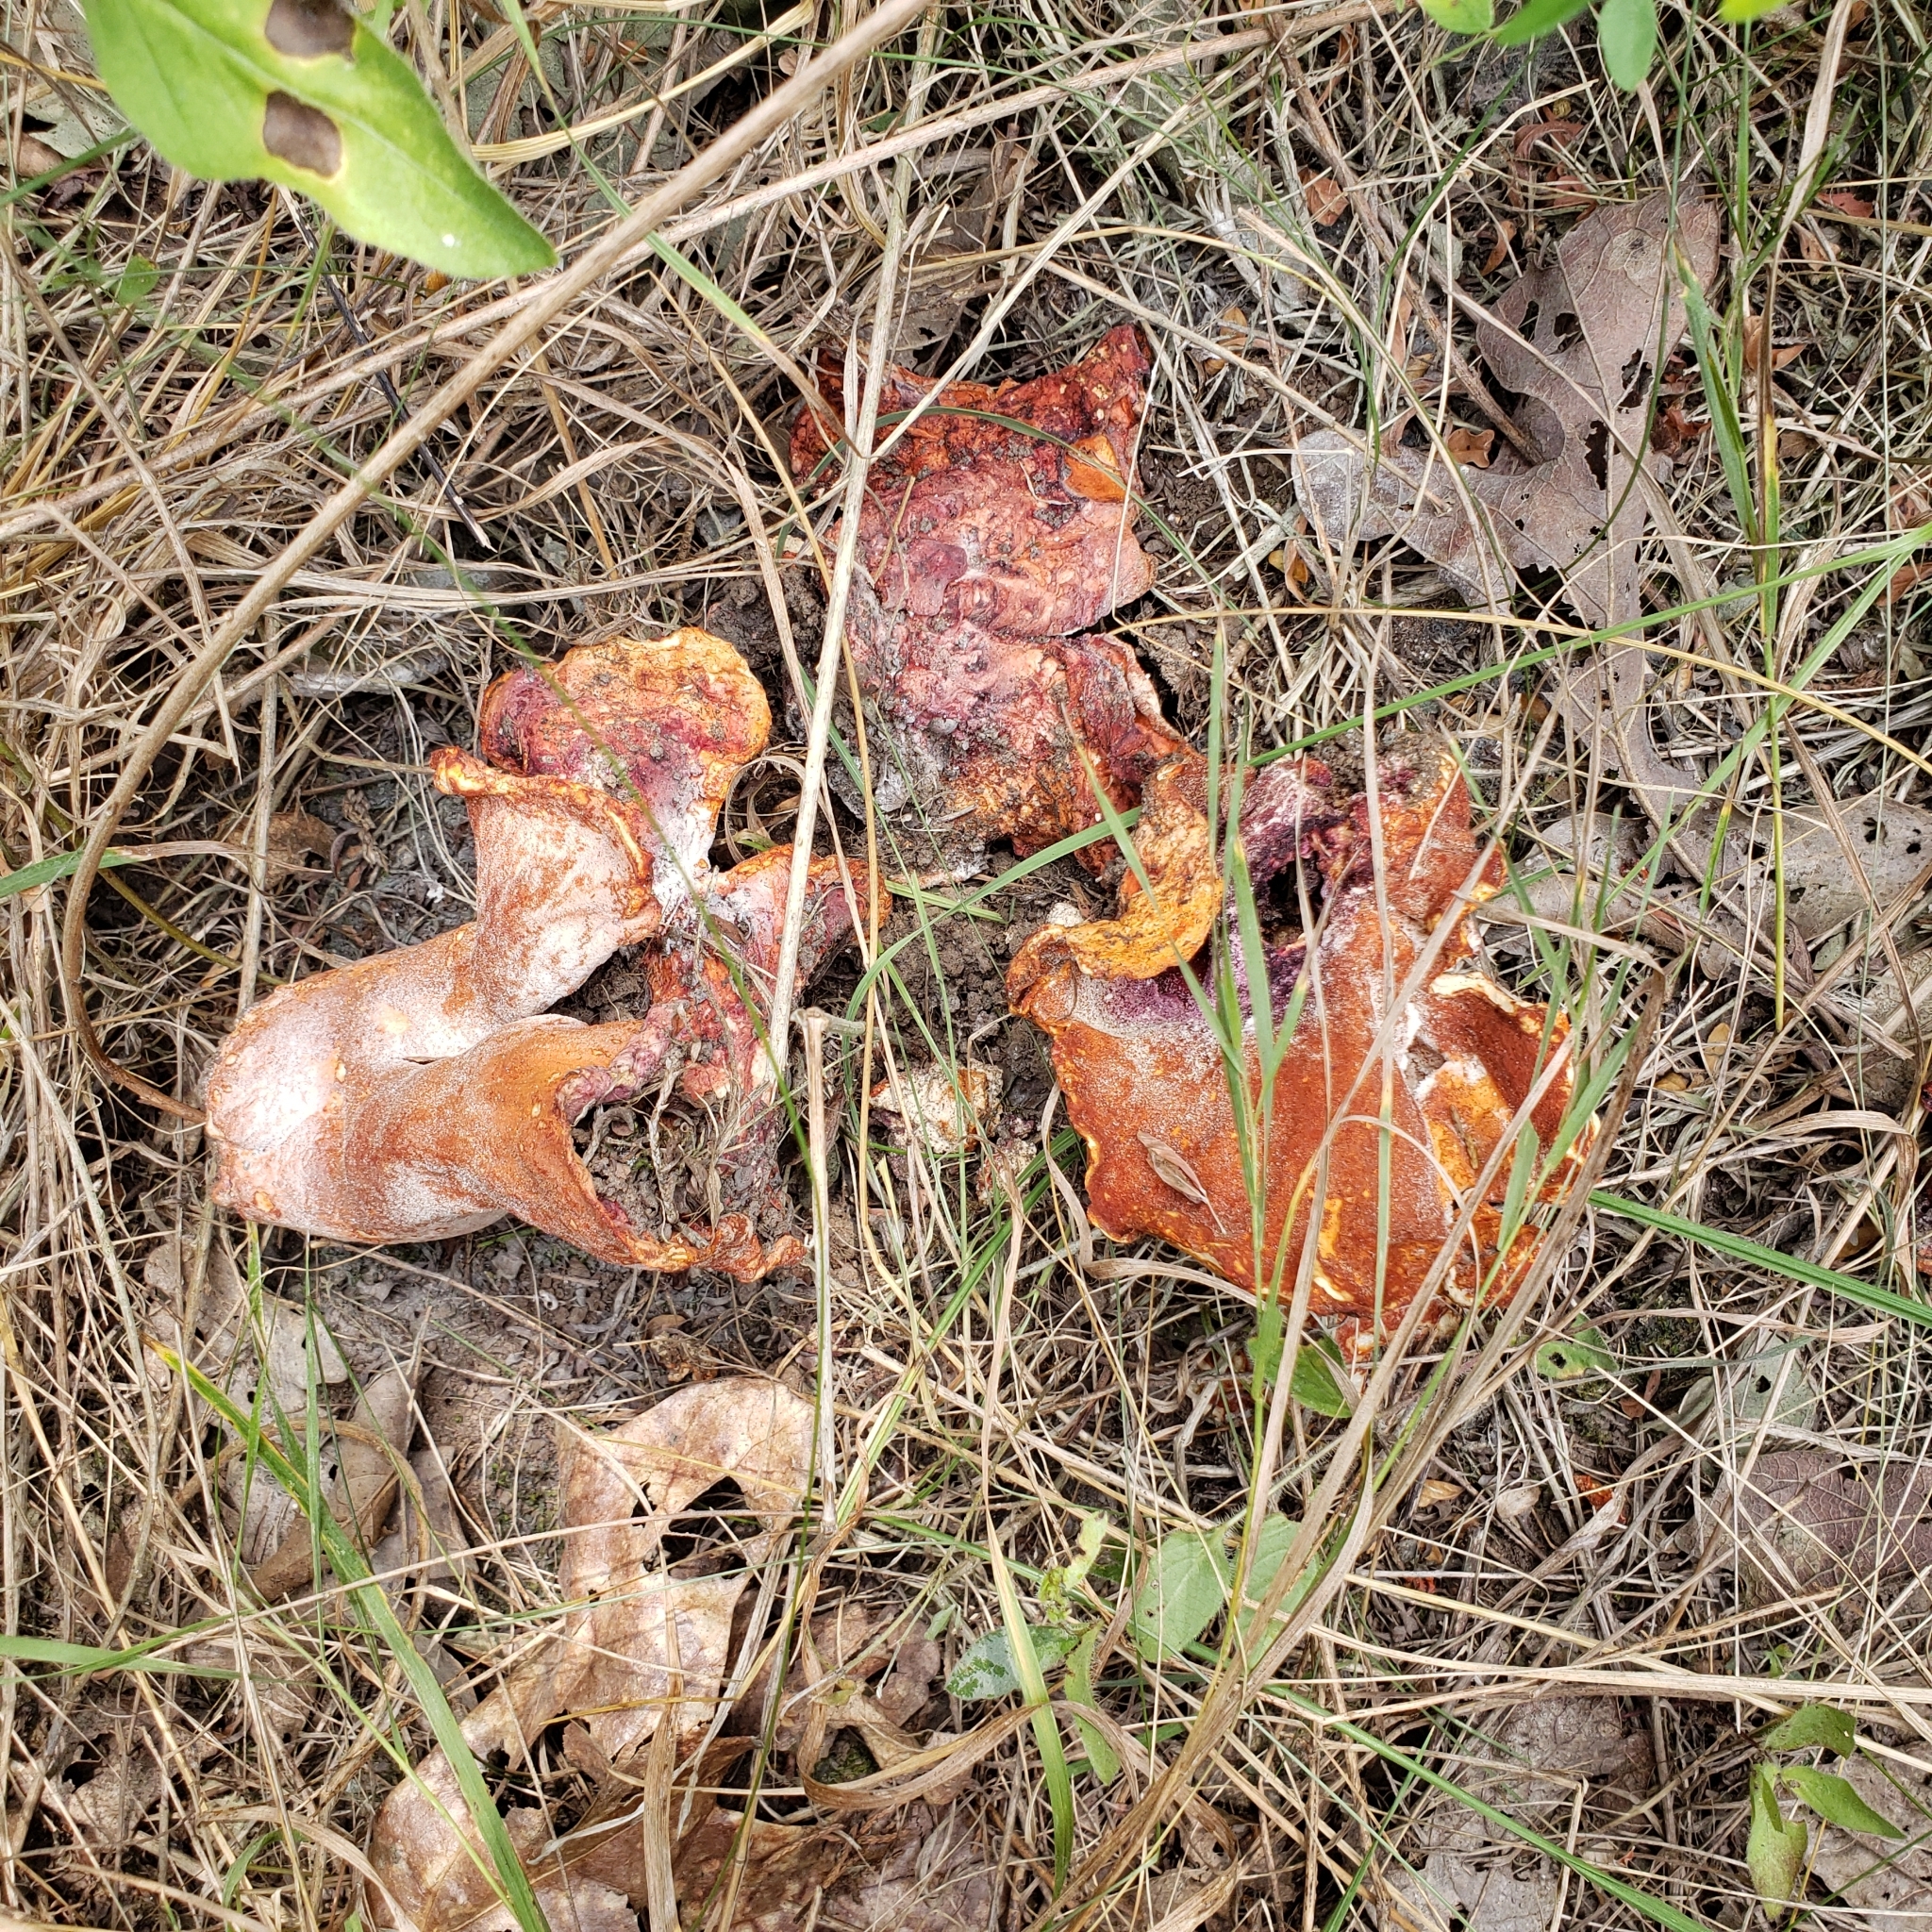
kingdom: Fungi
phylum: Ascomycota
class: Sordariomycetes
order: Hypocreales
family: Hypocreaceae
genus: Hypomyces
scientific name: Hypomyces lactifluorum
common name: Lobster mushroom
